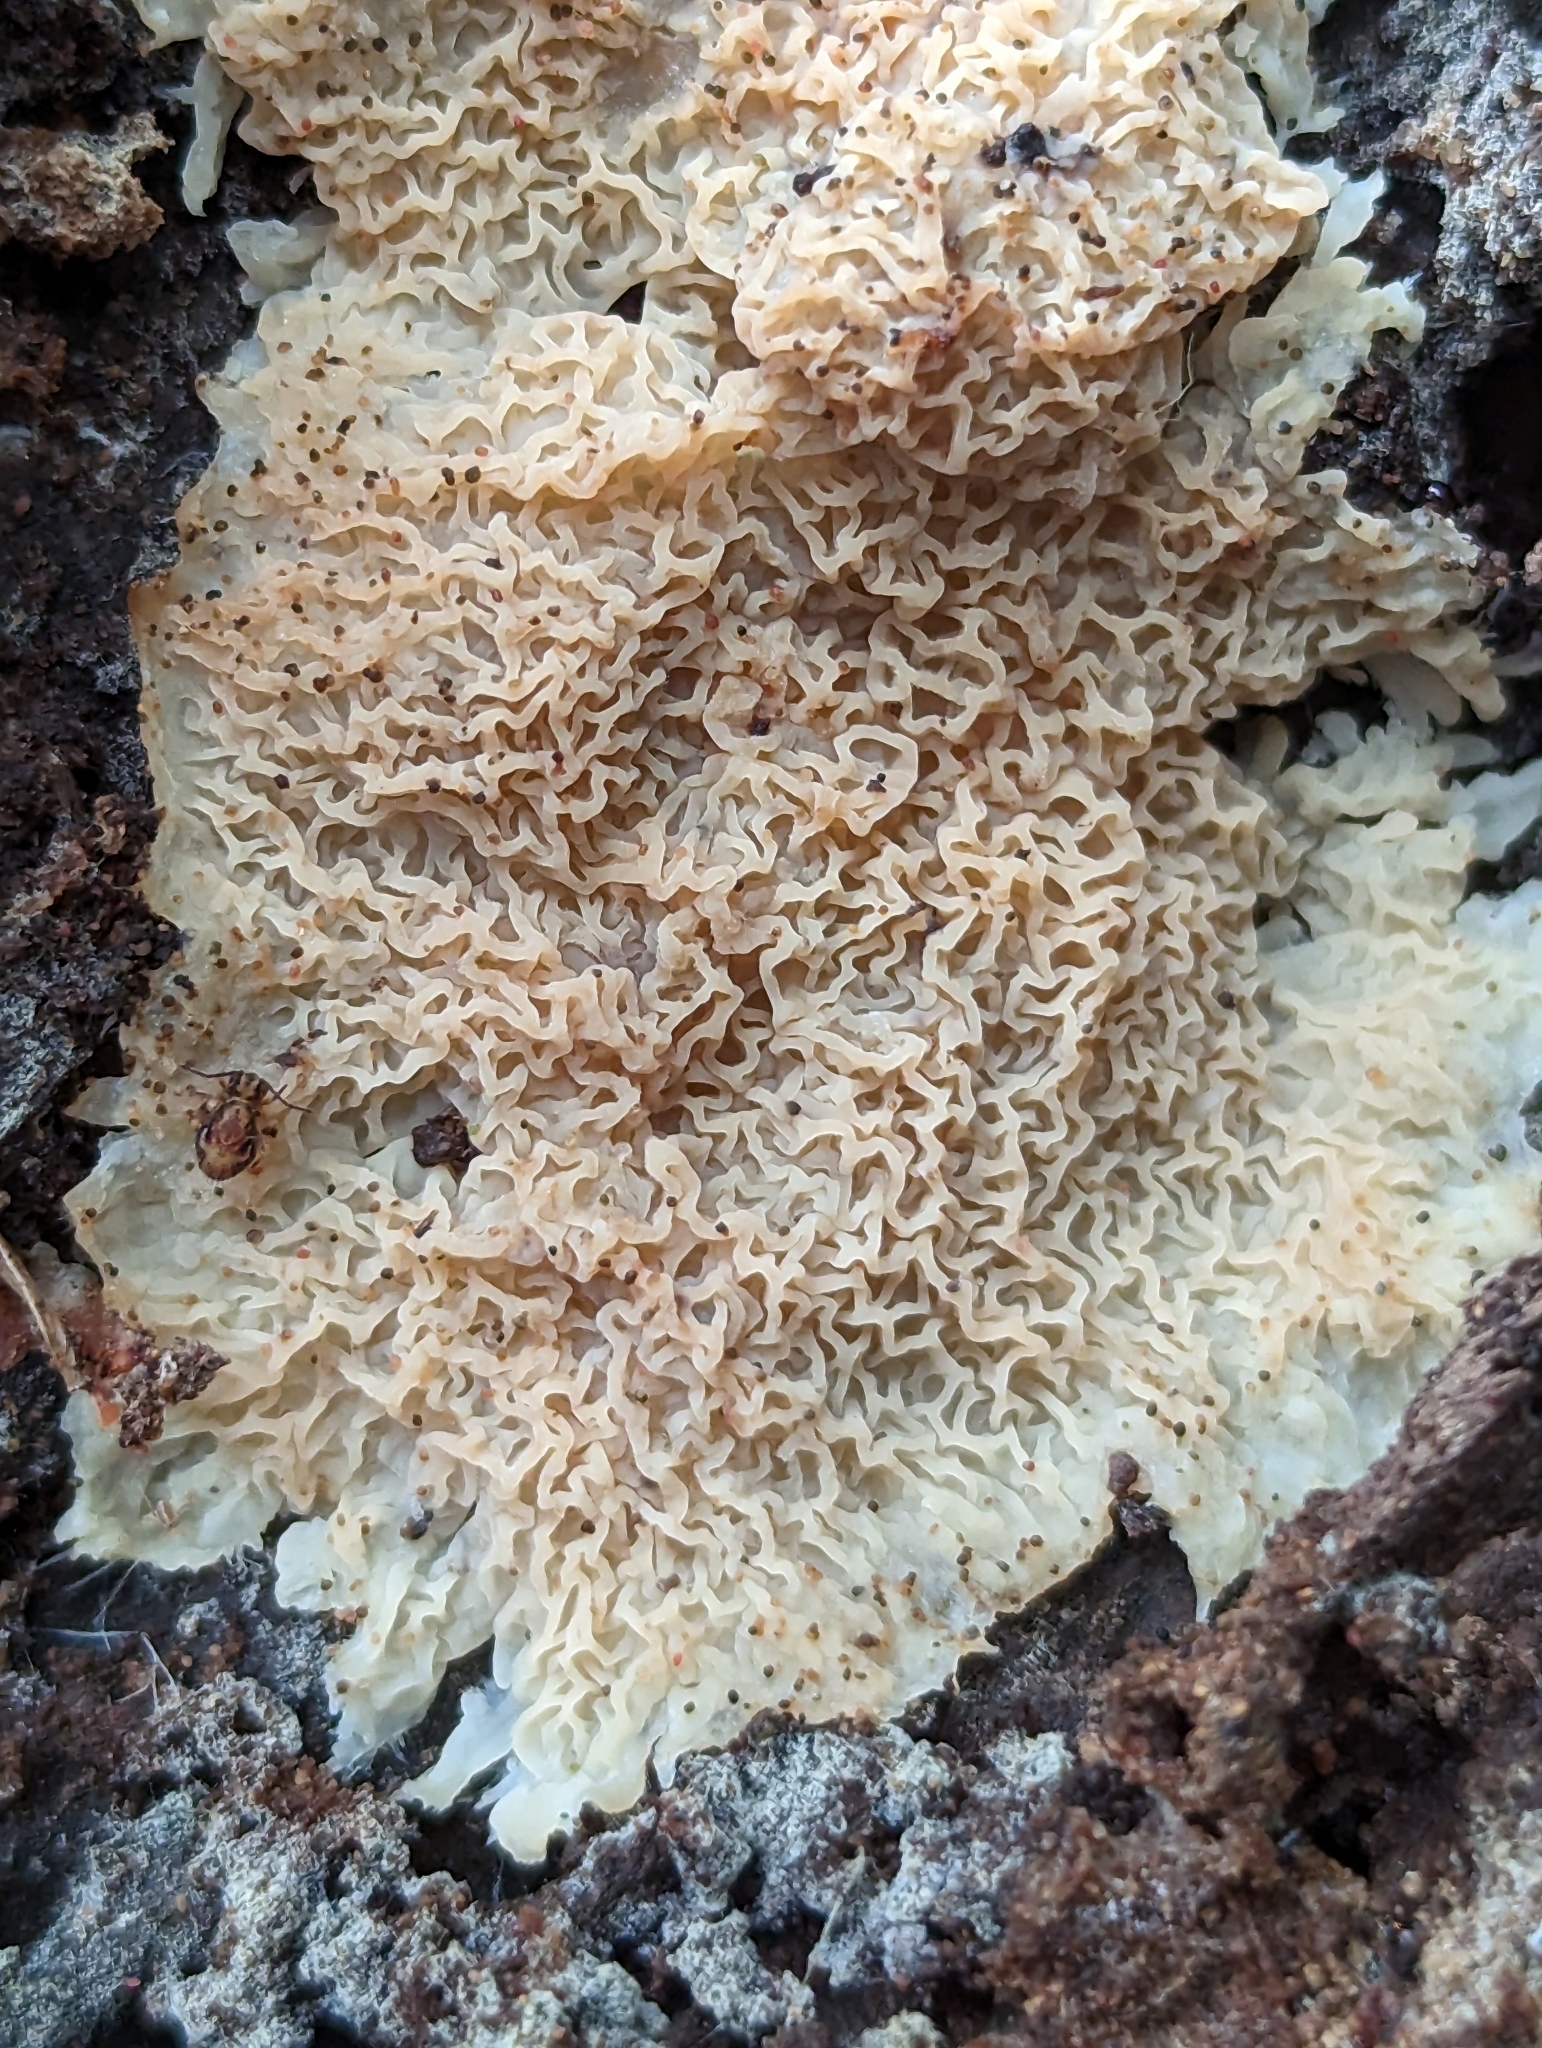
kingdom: Fungi
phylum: Basidiomycota
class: Agaricomycetes
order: Polyporales
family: Meruliaceae
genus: Phlebia
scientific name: Phlebia tremellosa
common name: Jelly rot
